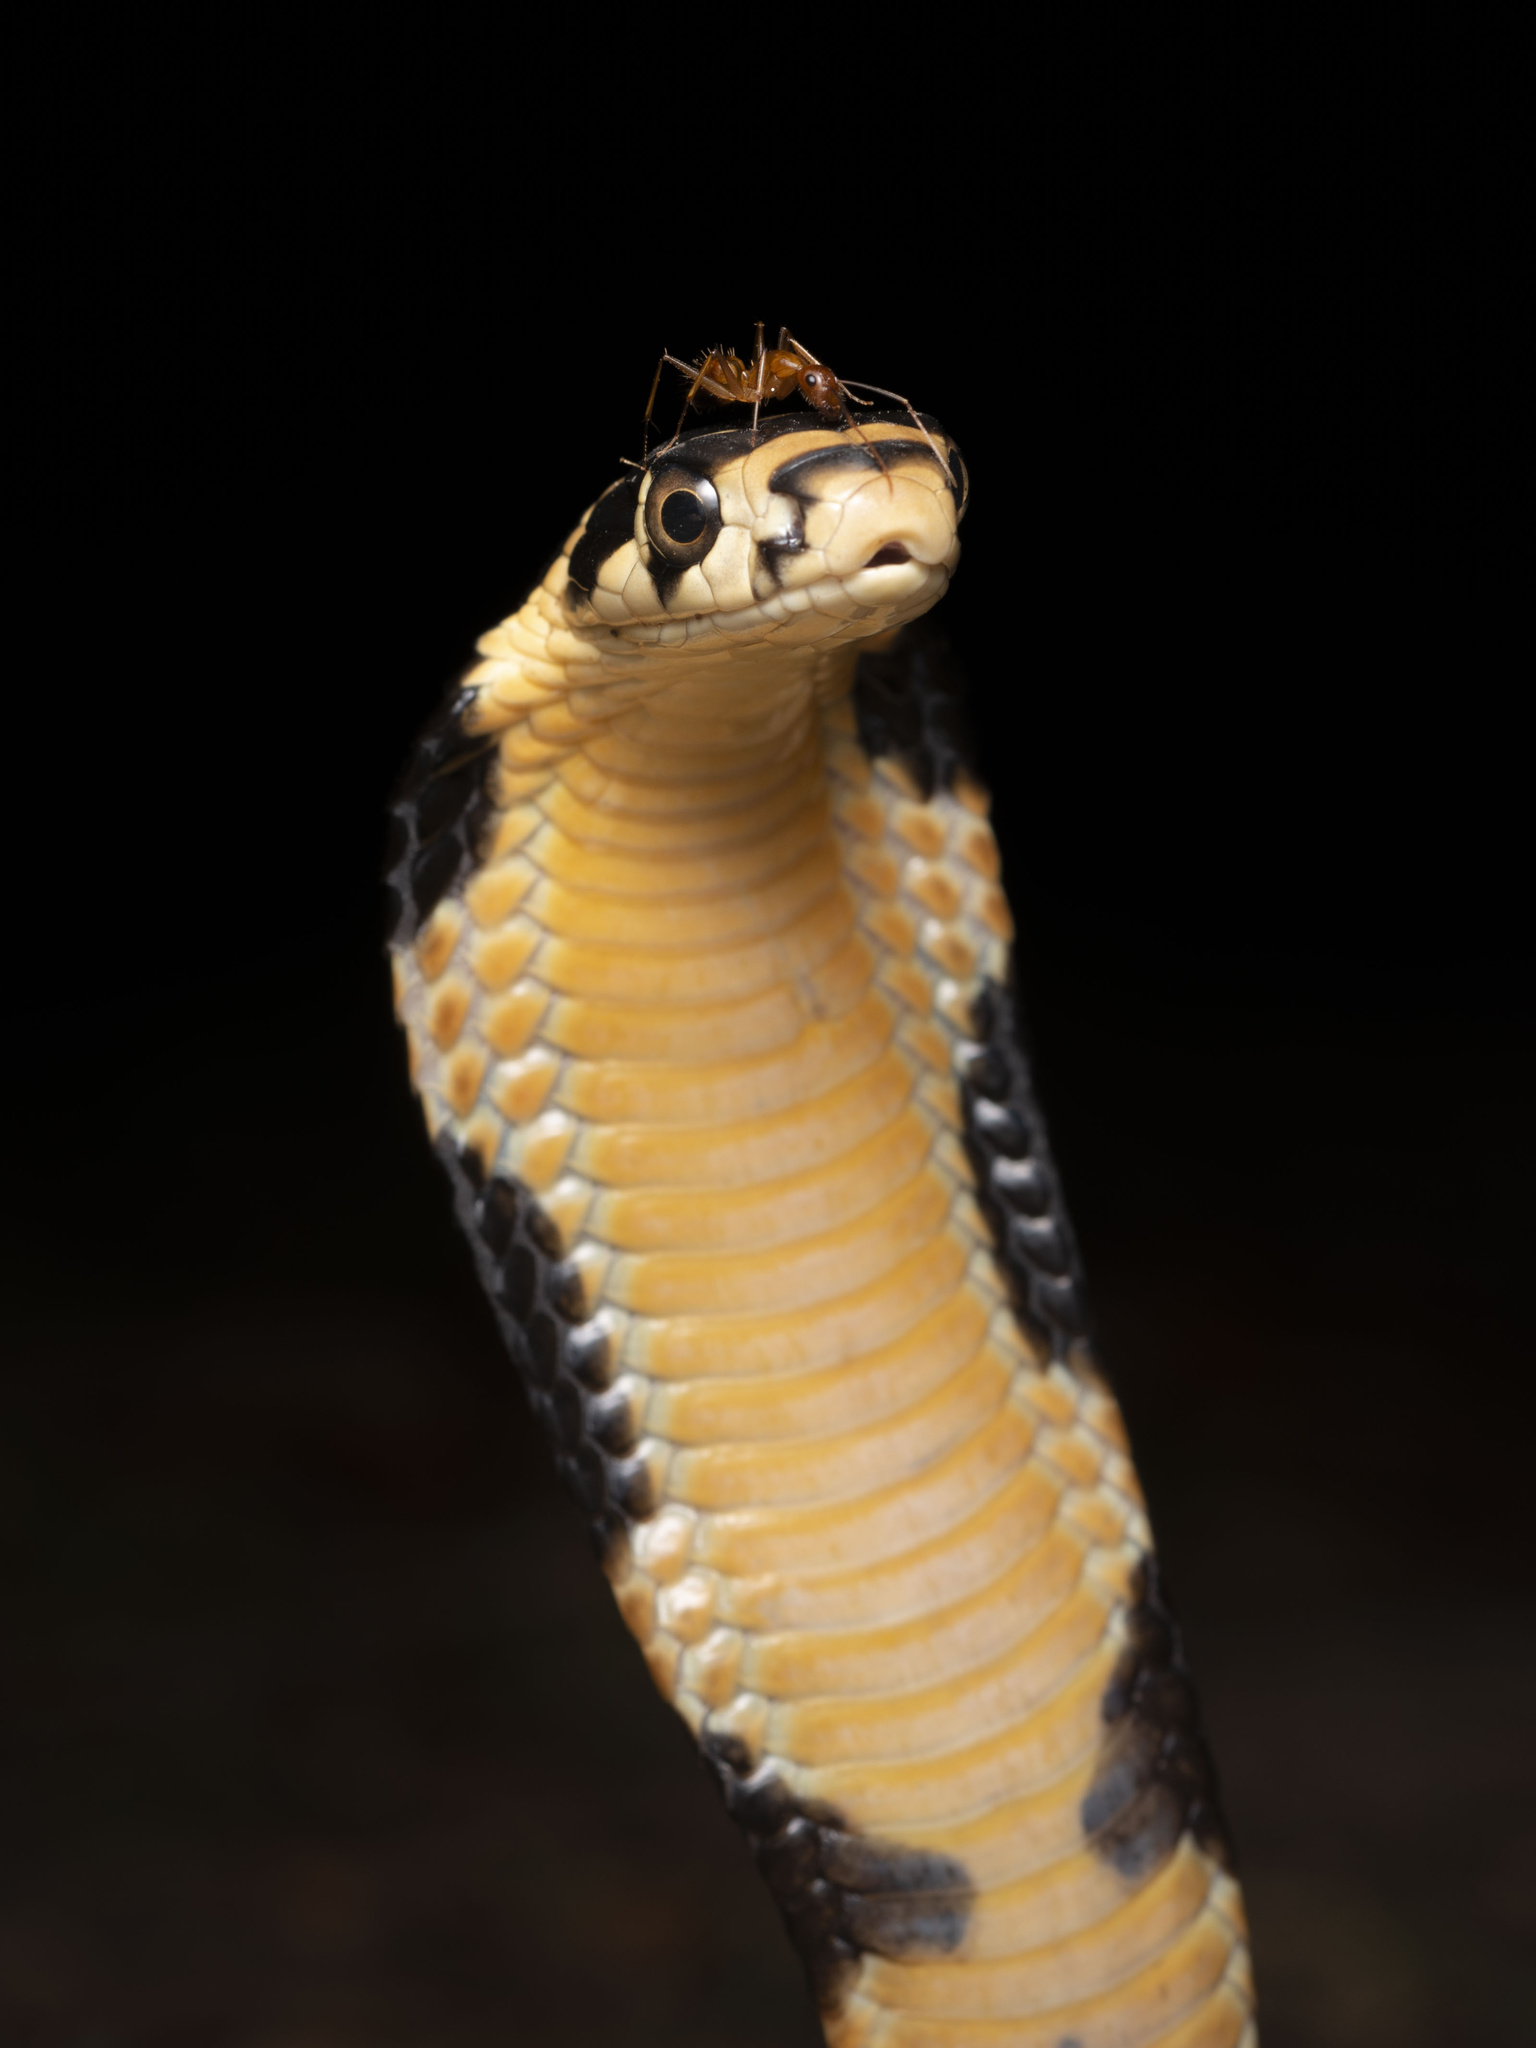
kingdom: Animalia
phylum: Chordata
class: Squamata
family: Elapidae
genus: Ophiophagus
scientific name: Ophiophagus hannah
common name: Hamadryad
